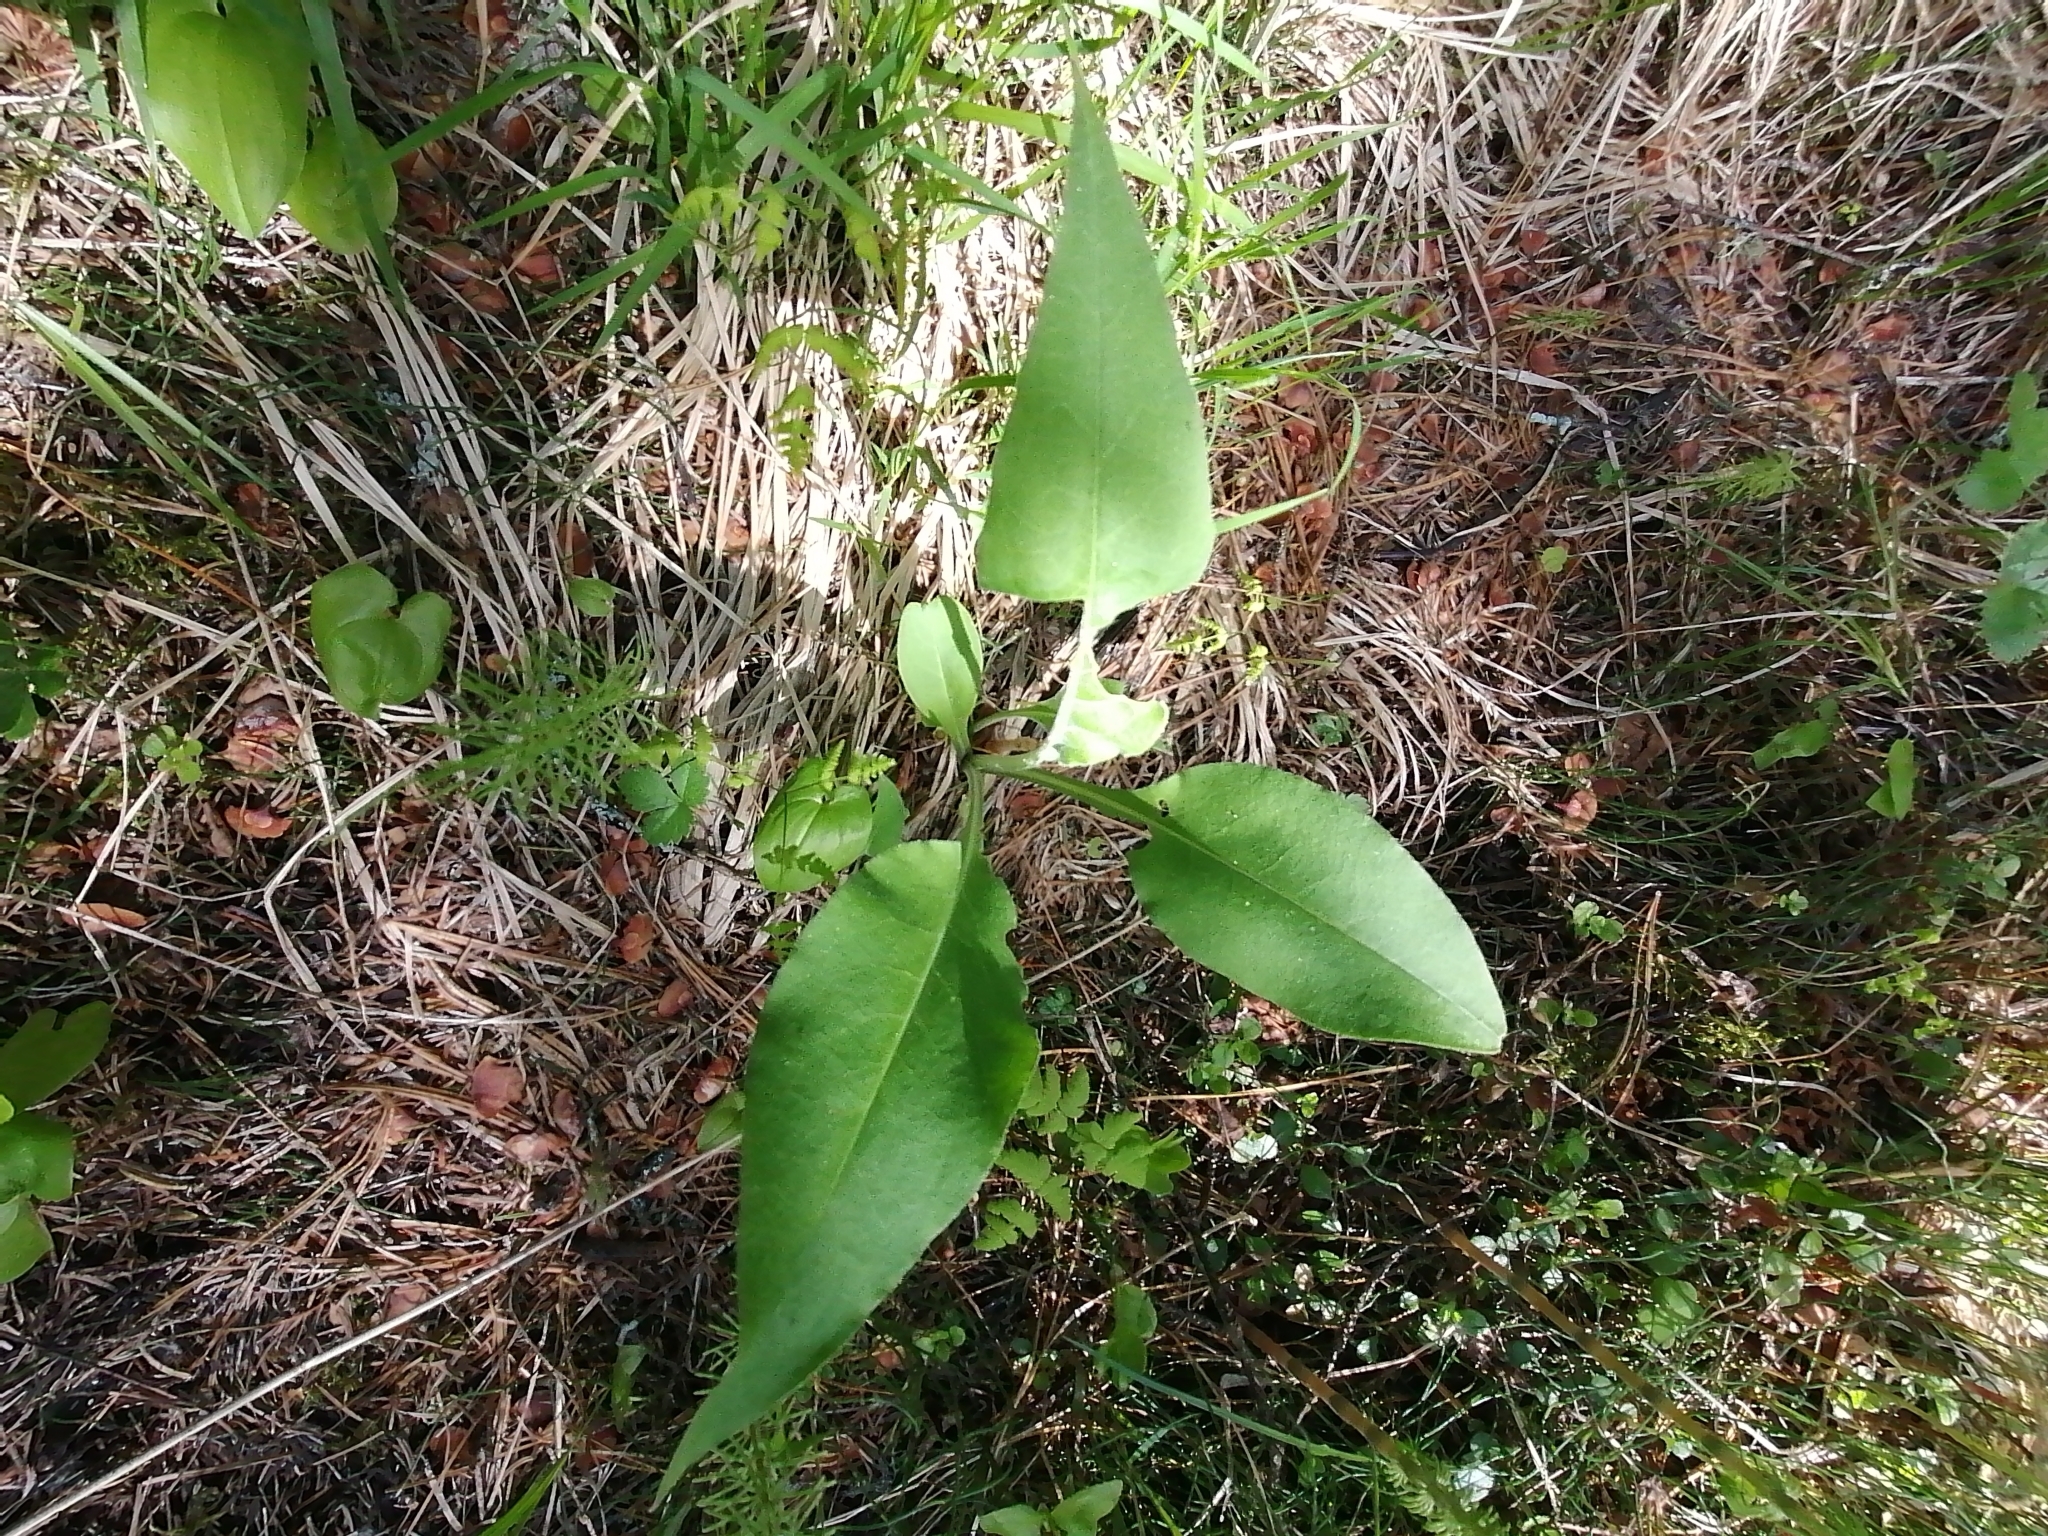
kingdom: Plantae
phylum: Tracheophyta
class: Magnoliopsida
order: Boraginales
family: Boraginaceae
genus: Pulmonaria
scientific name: Pulmonaria mollis
